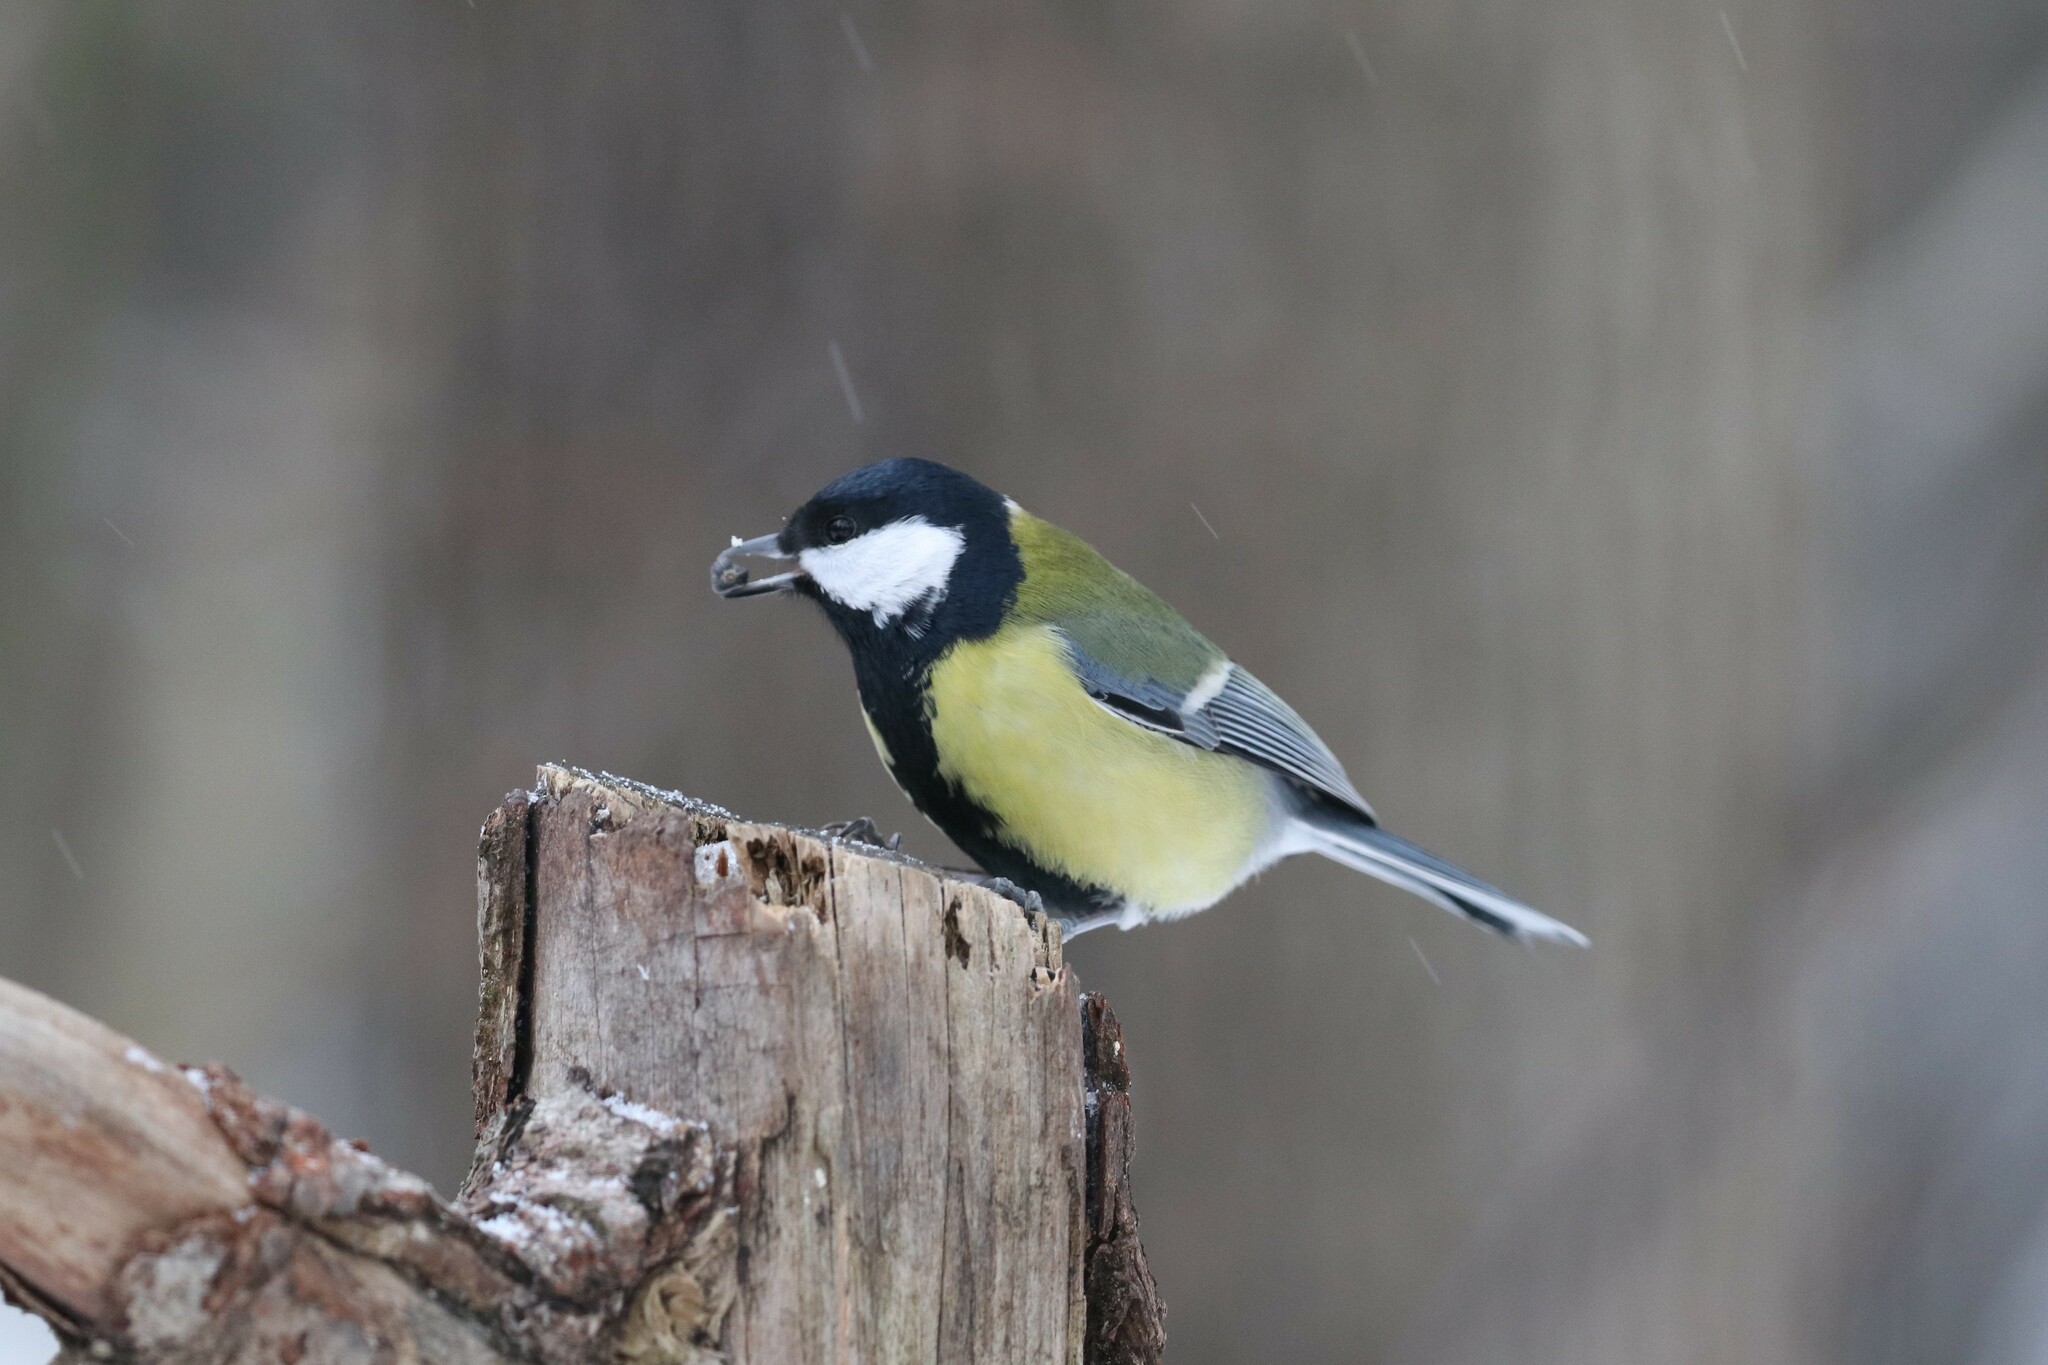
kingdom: Animalia
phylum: Chordata
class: Aves
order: Passeriformes
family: Paridae
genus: Parus
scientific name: Parus major
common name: Great tit
